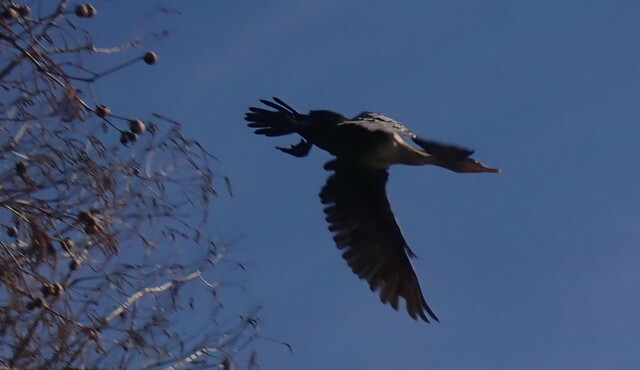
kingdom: Animalia
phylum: Chordata
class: Aves
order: Suliformes
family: Phalacrocoracidae
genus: Phalacrocorax
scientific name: Phalacrocorax auritus
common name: Double-crested cormorant
